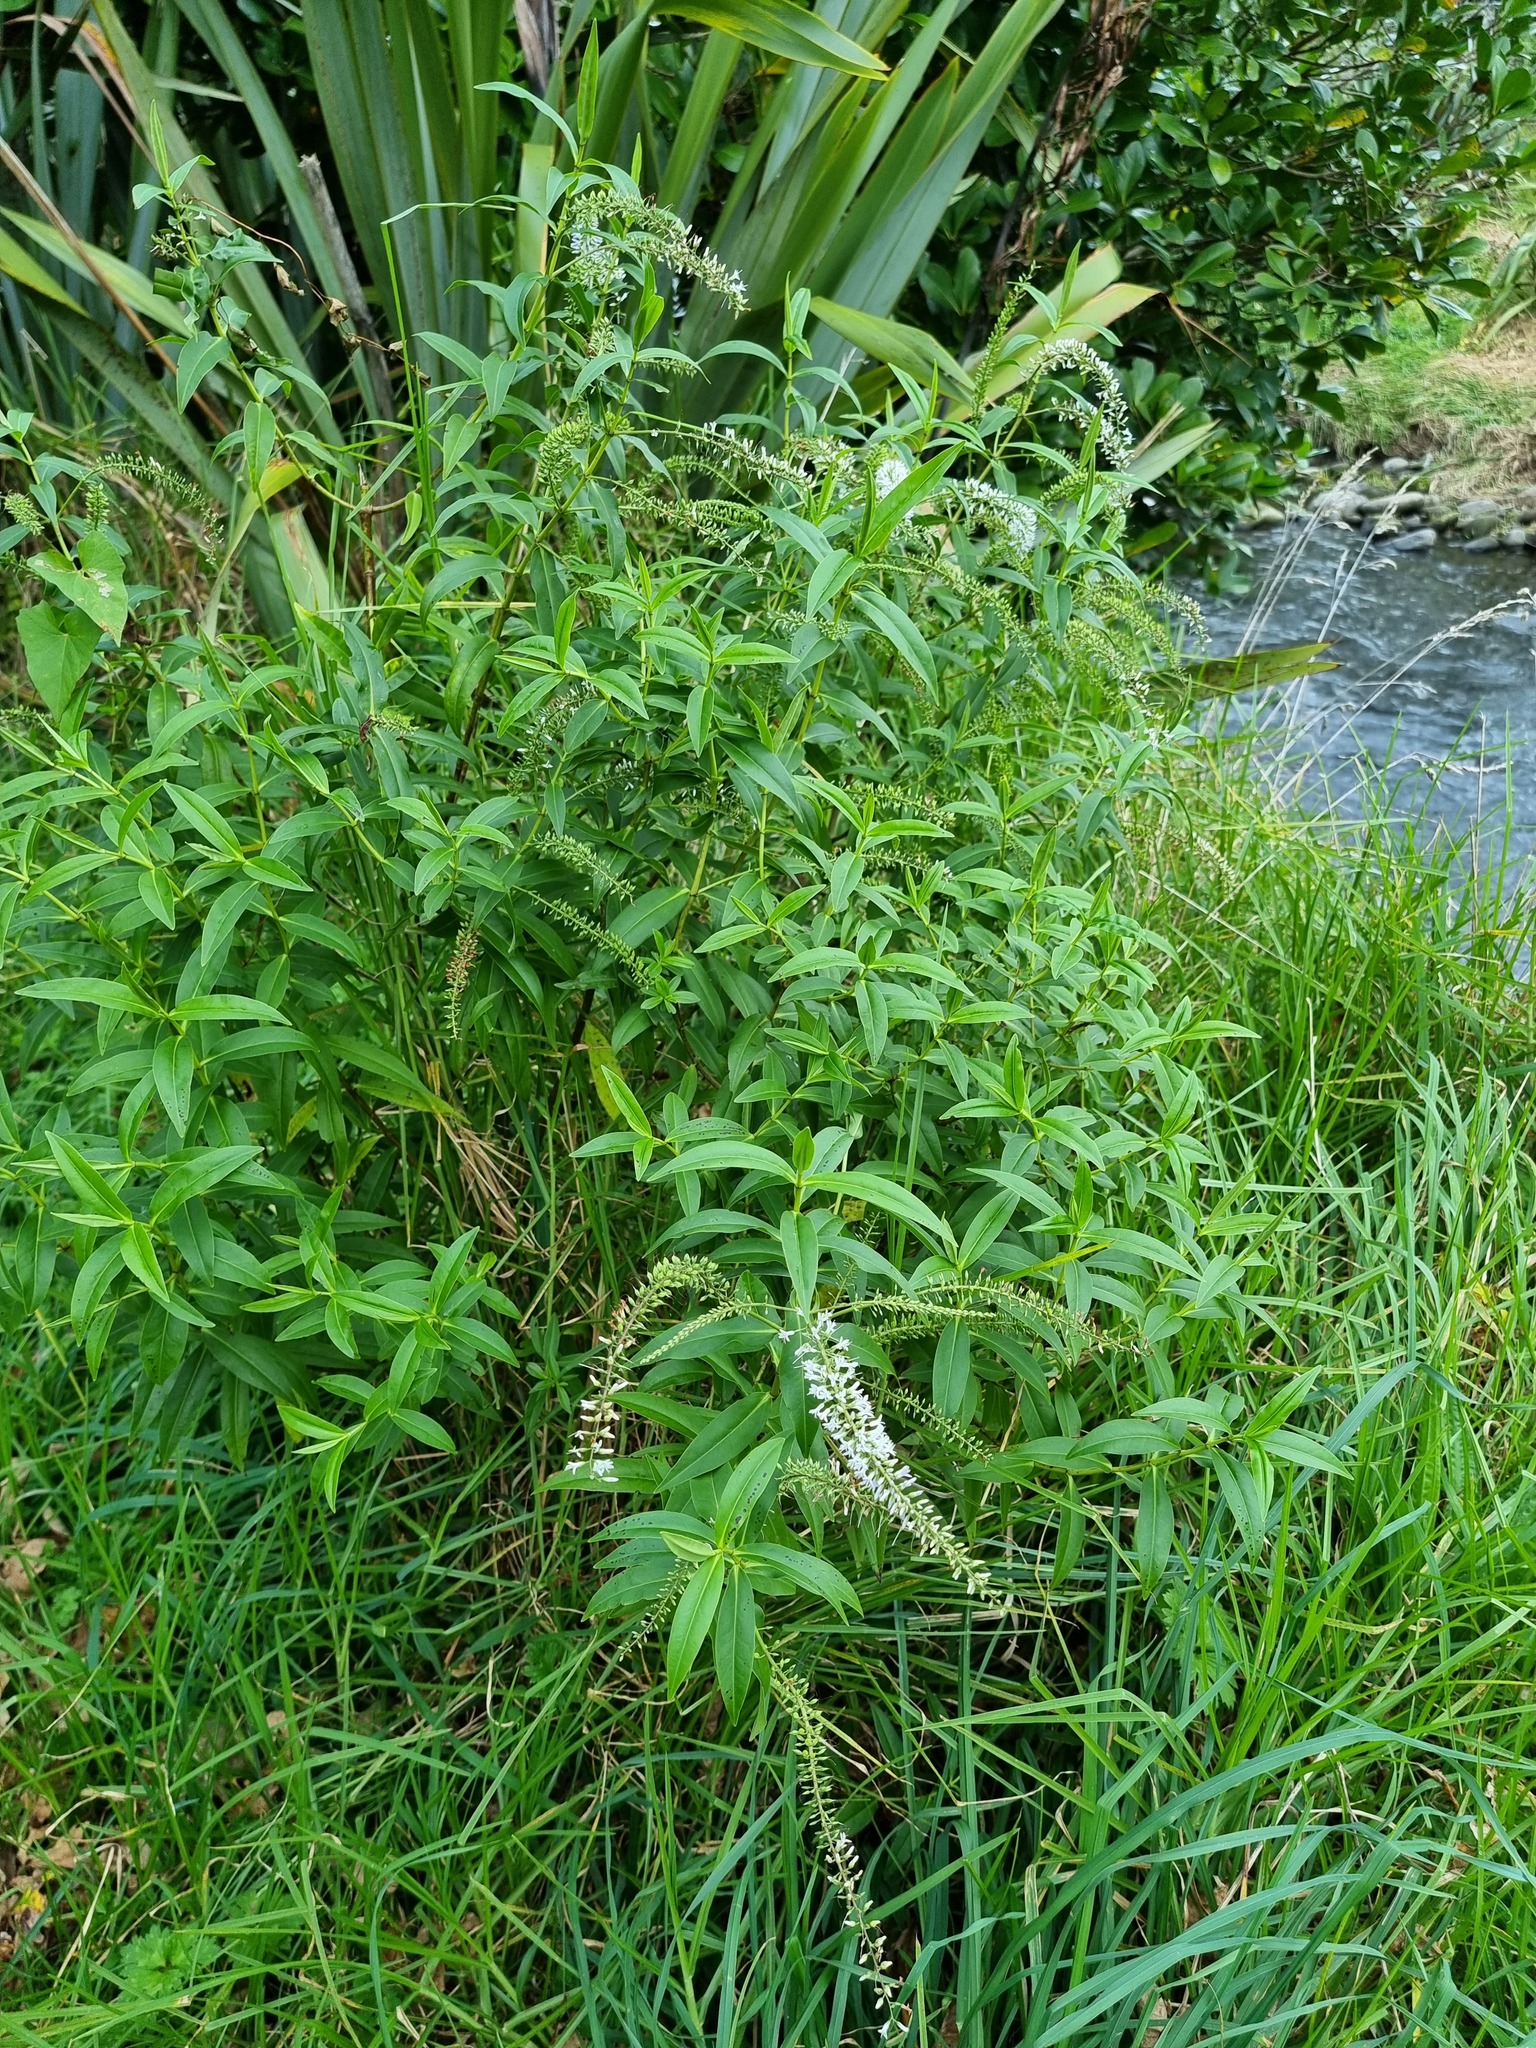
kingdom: Plantae
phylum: Tracheophyta
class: Magnoliopsida
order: Lamiales
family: Plantaginaceae
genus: Veronica
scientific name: Veronica stricta
